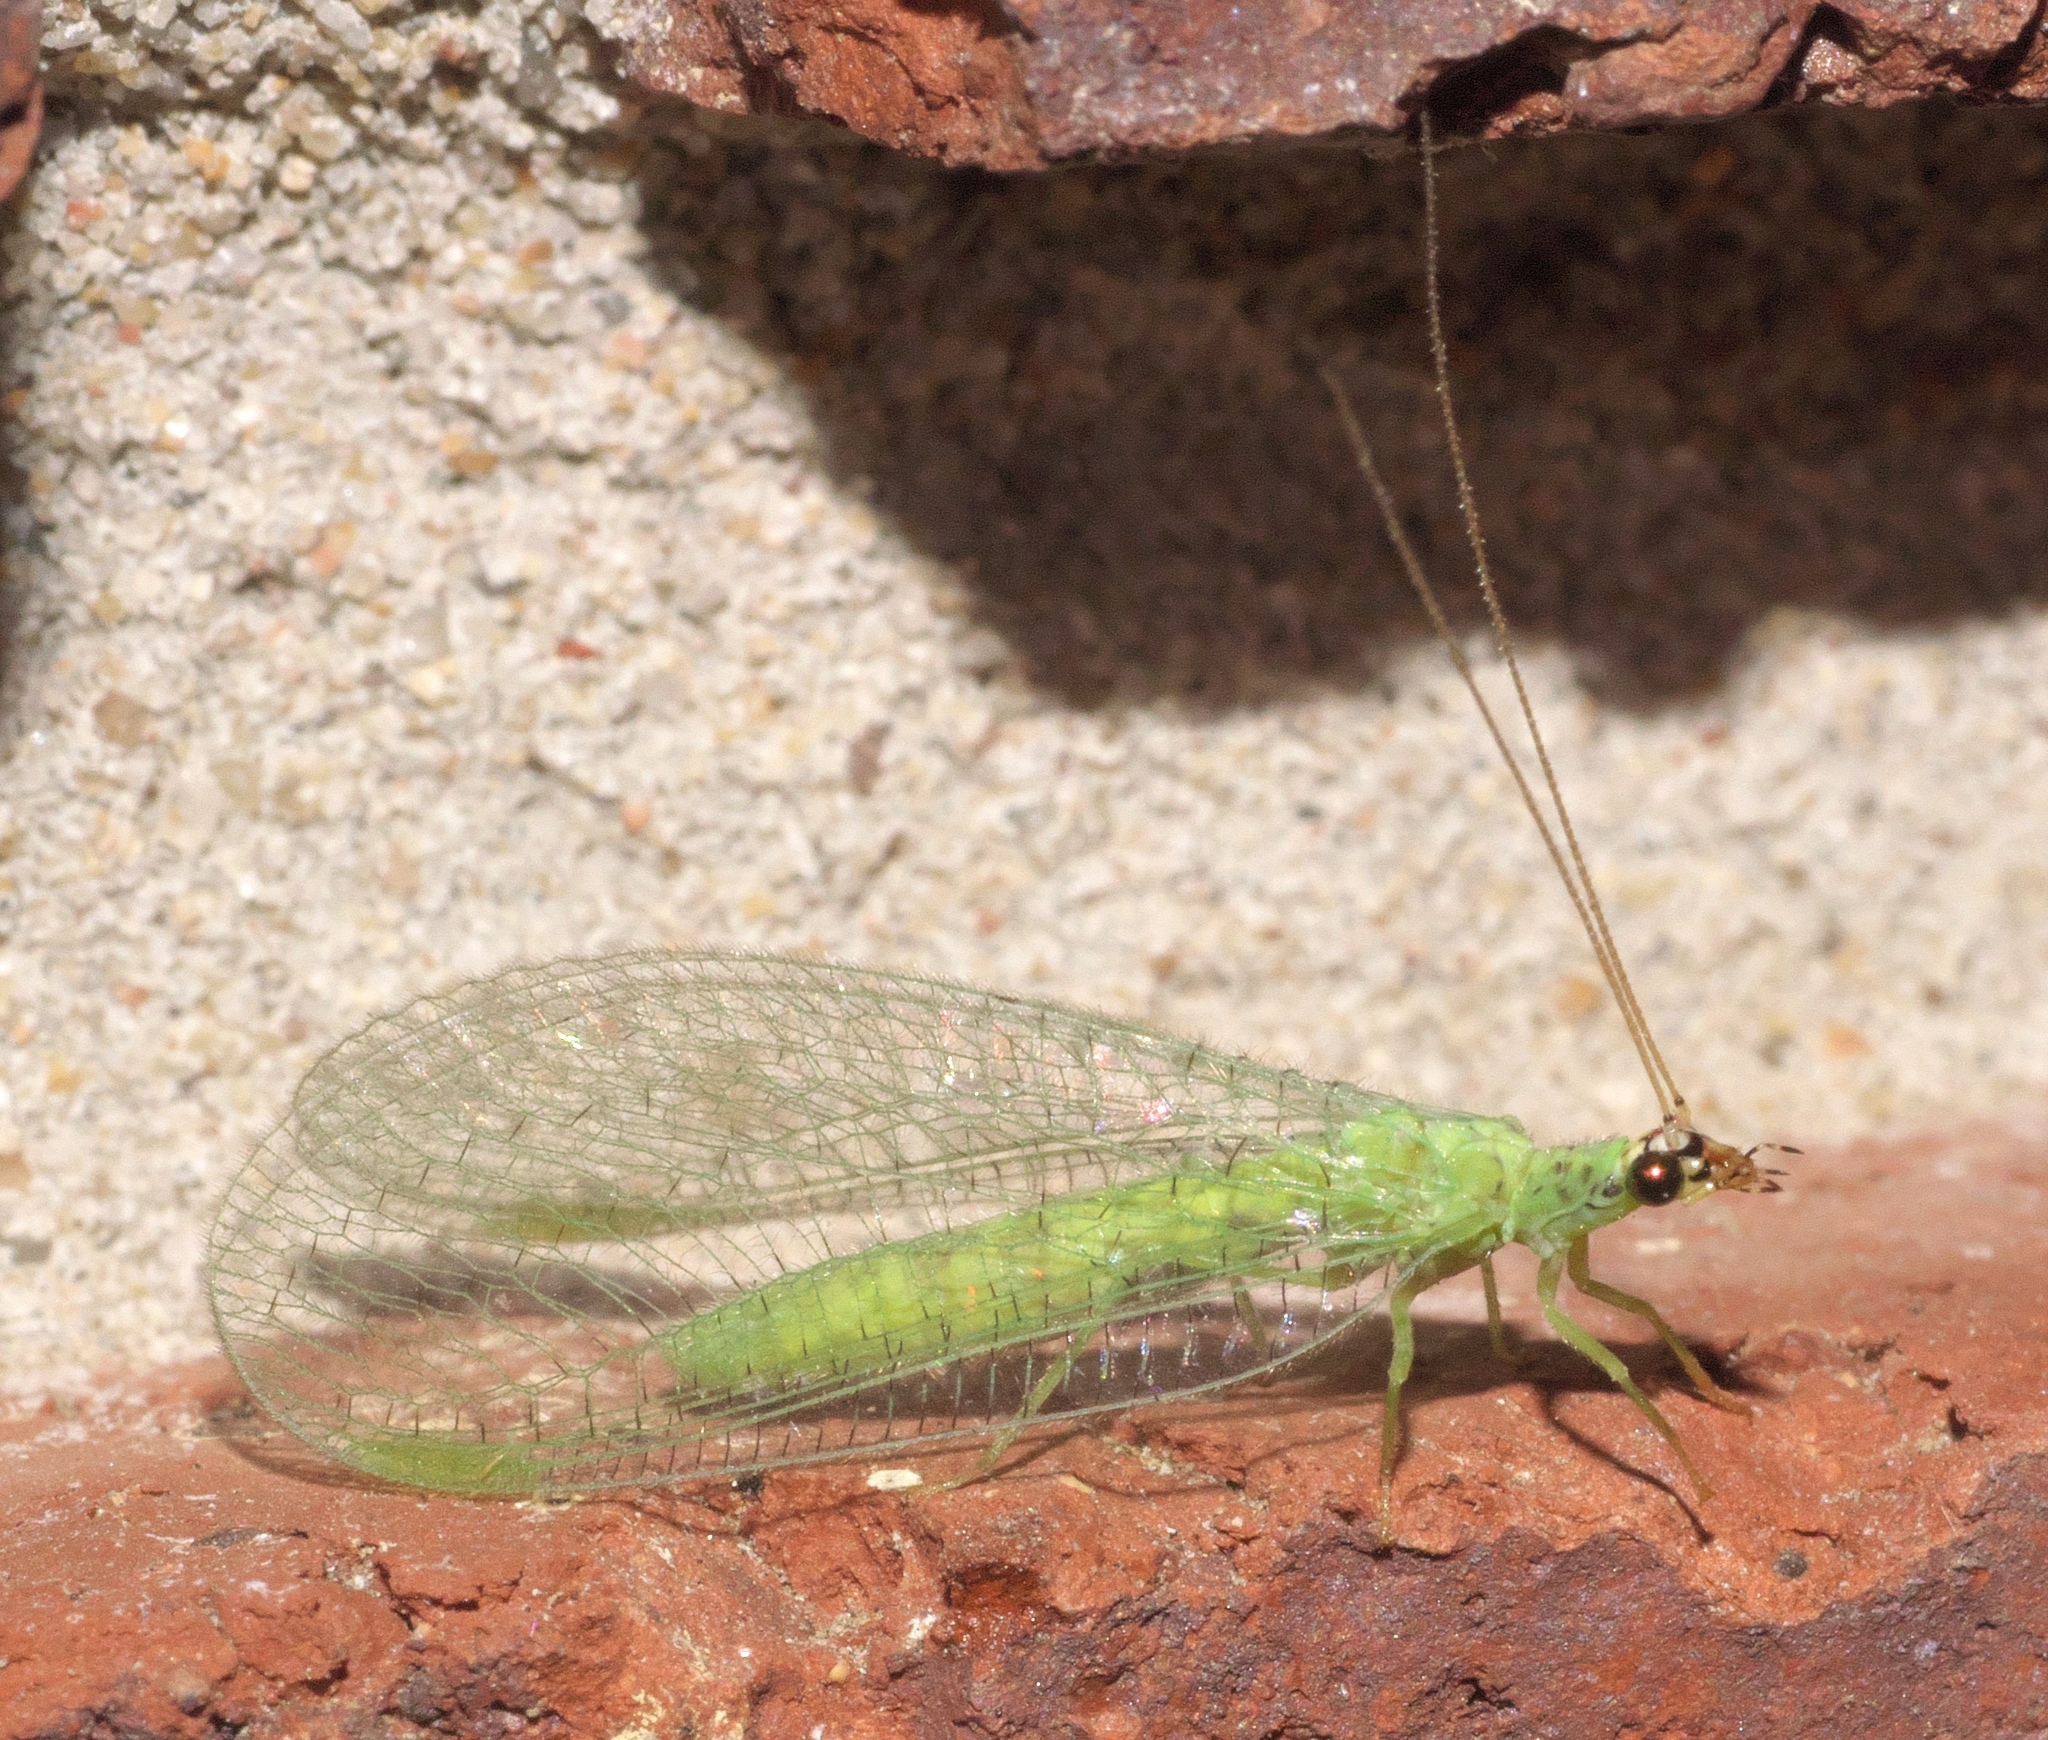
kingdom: Animalia
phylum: Arthropoda
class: Insecta
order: Neuroptera
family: Chrysopidae
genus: Chrysopa
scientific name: Chrysopa oculata
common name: Golden-eyed lacewing
